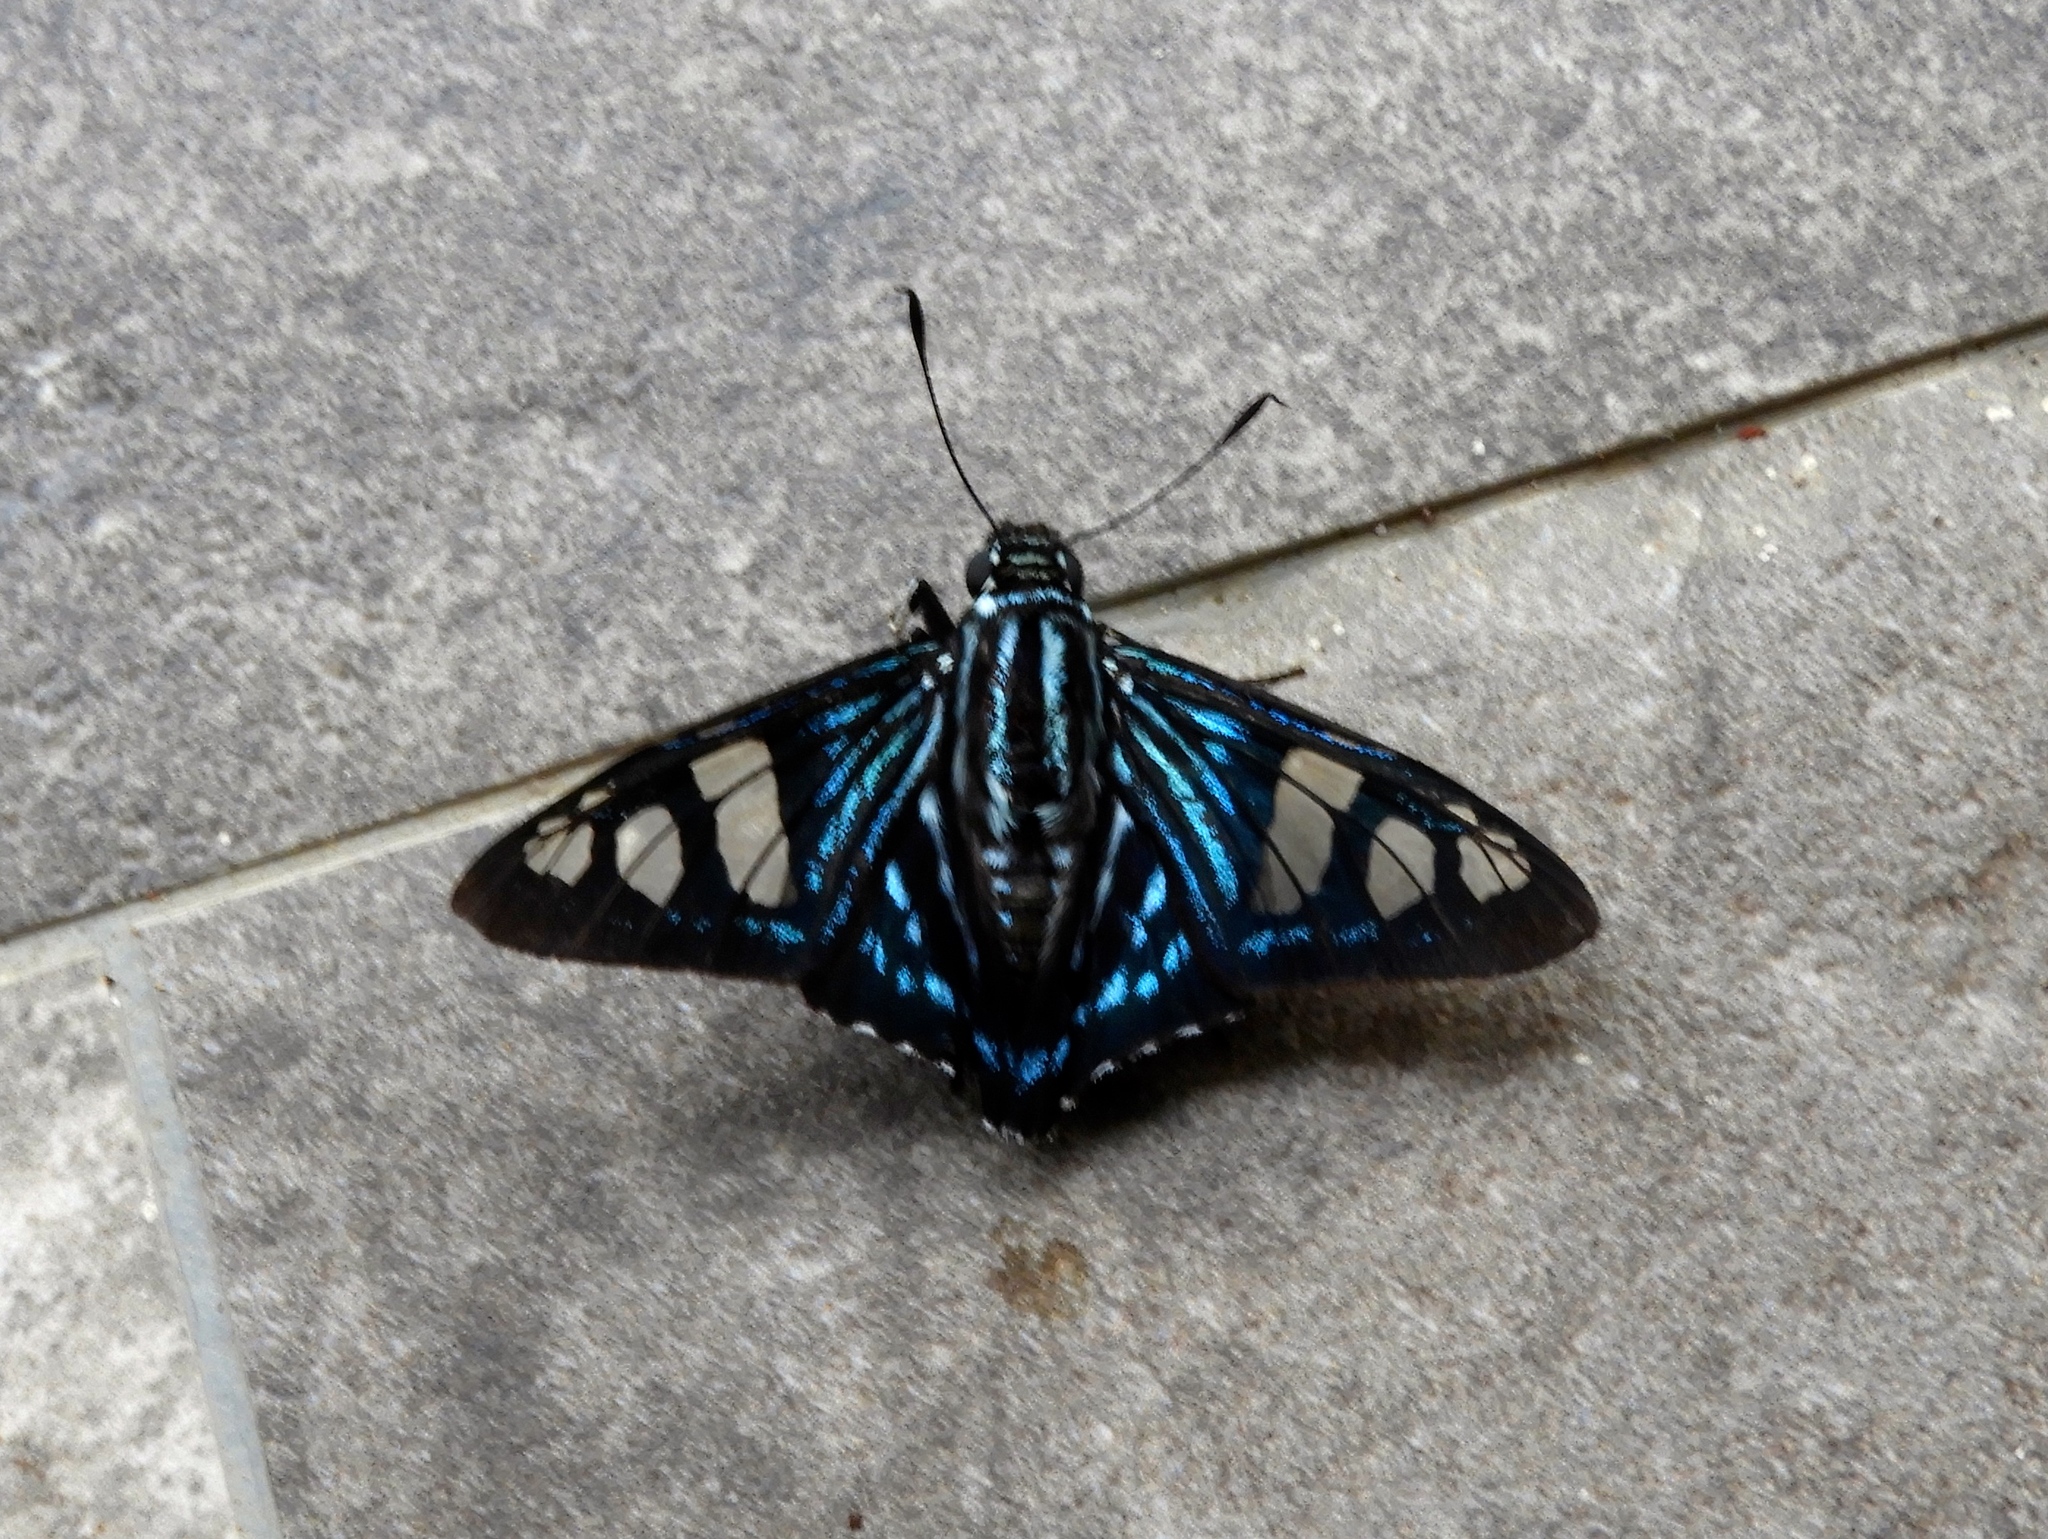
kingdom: Animalia
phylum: Arthropoda
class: Insecta
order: Lepidoptera
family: Hesperiidae
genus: Phocides
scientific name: Phocides pigmalion
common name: Mangrove skipper
